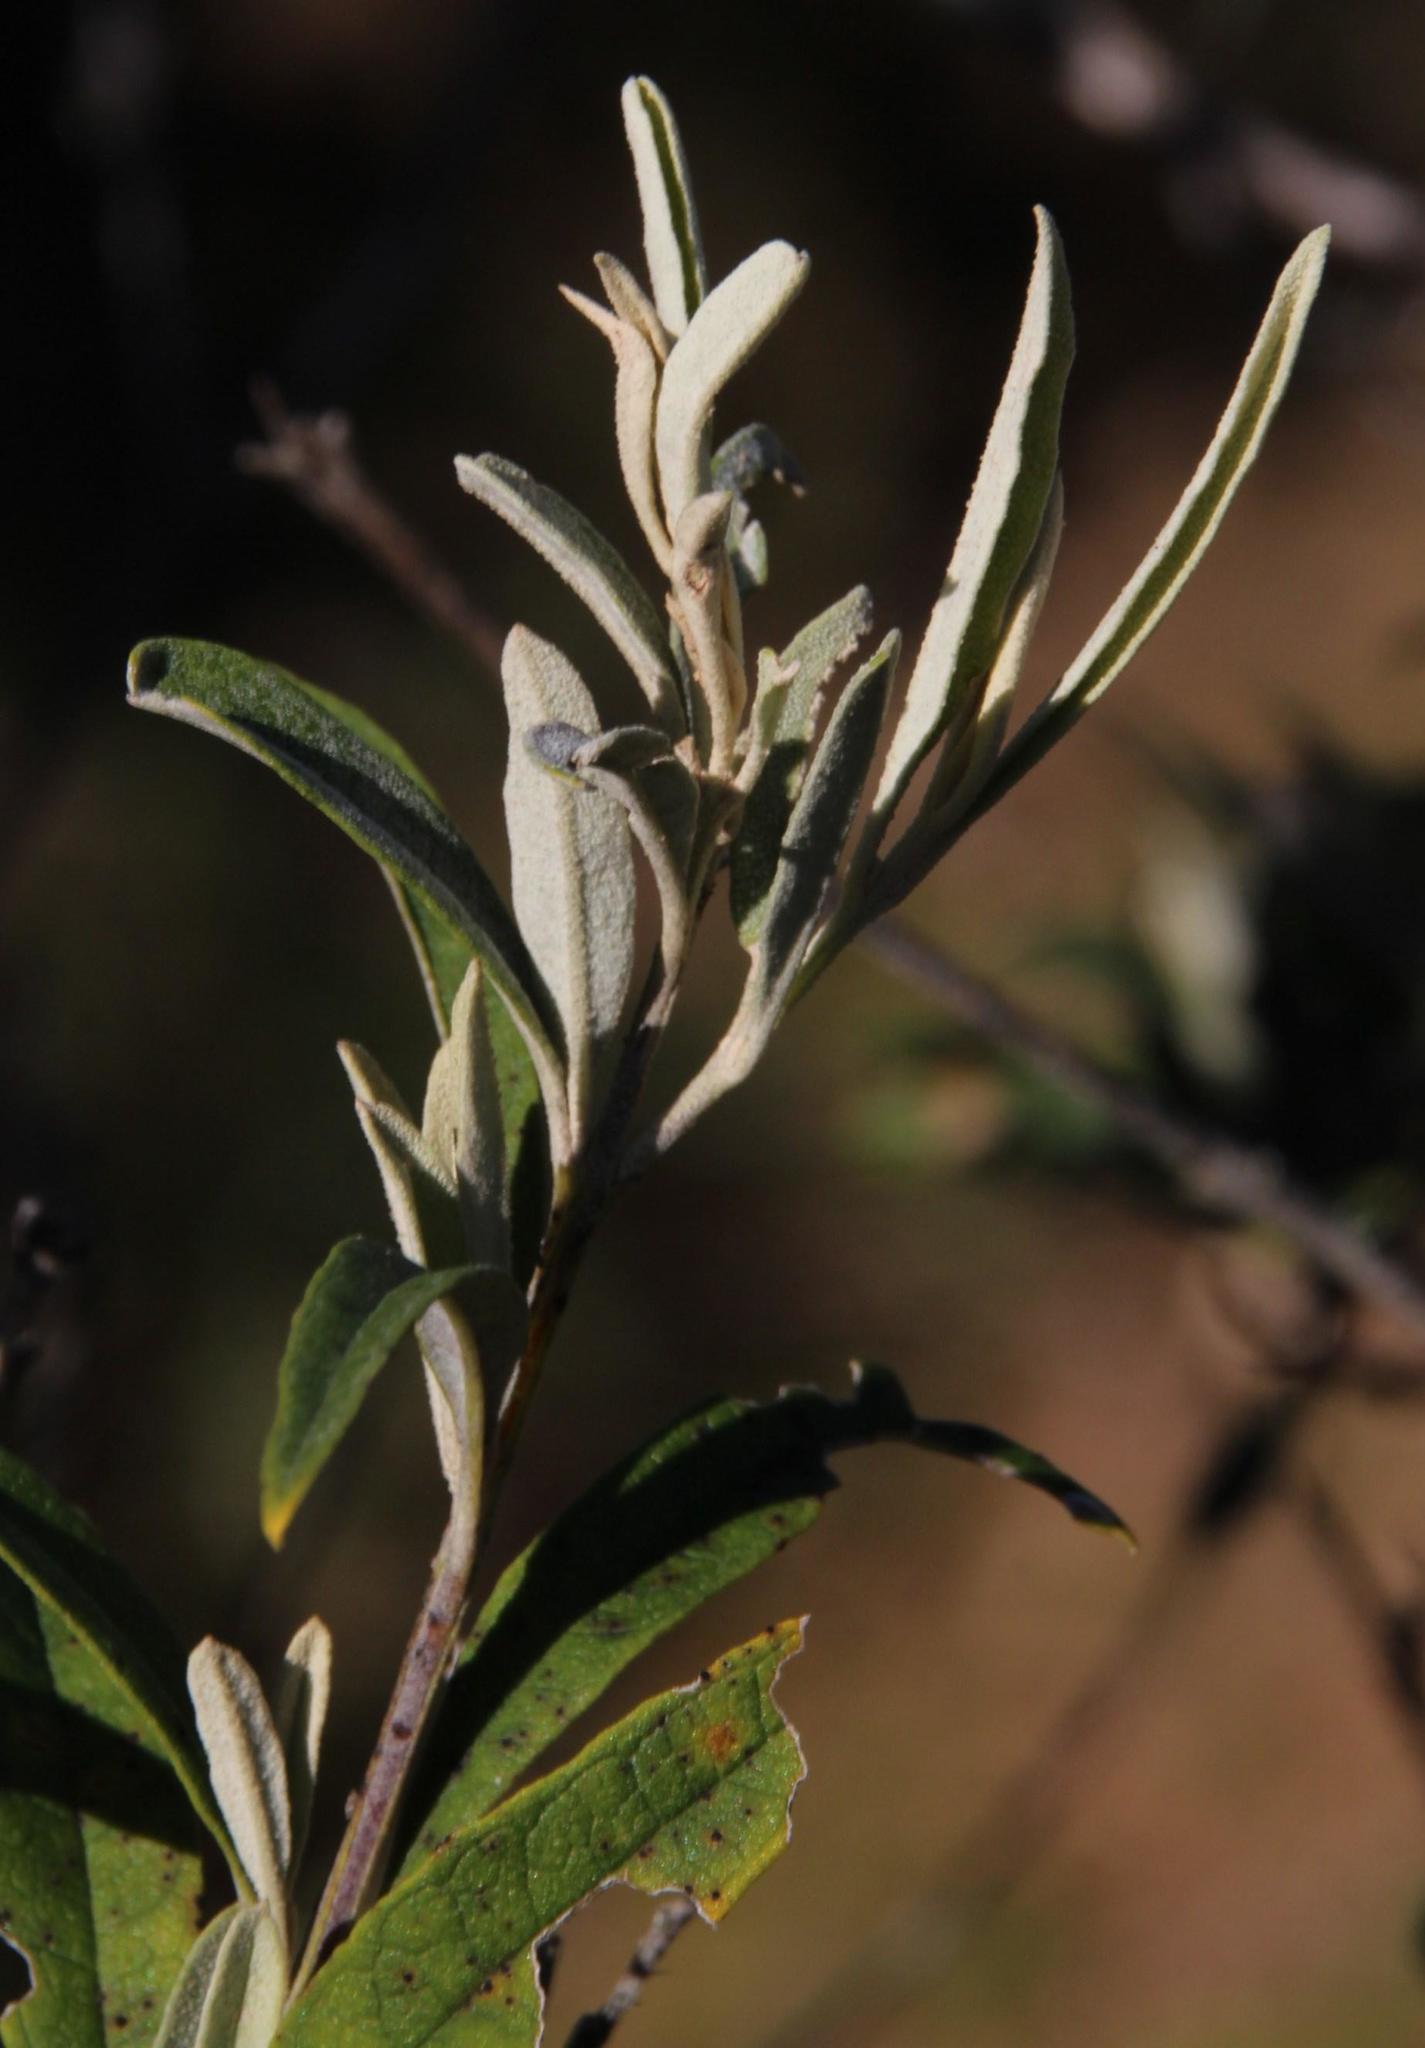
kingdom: Plantae
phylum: Tracheophyta
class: Magnoliopsida
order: Lamiales
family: Scrophulariaceae
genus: Buddleja
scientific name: Buddleja saligna
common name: False olive
